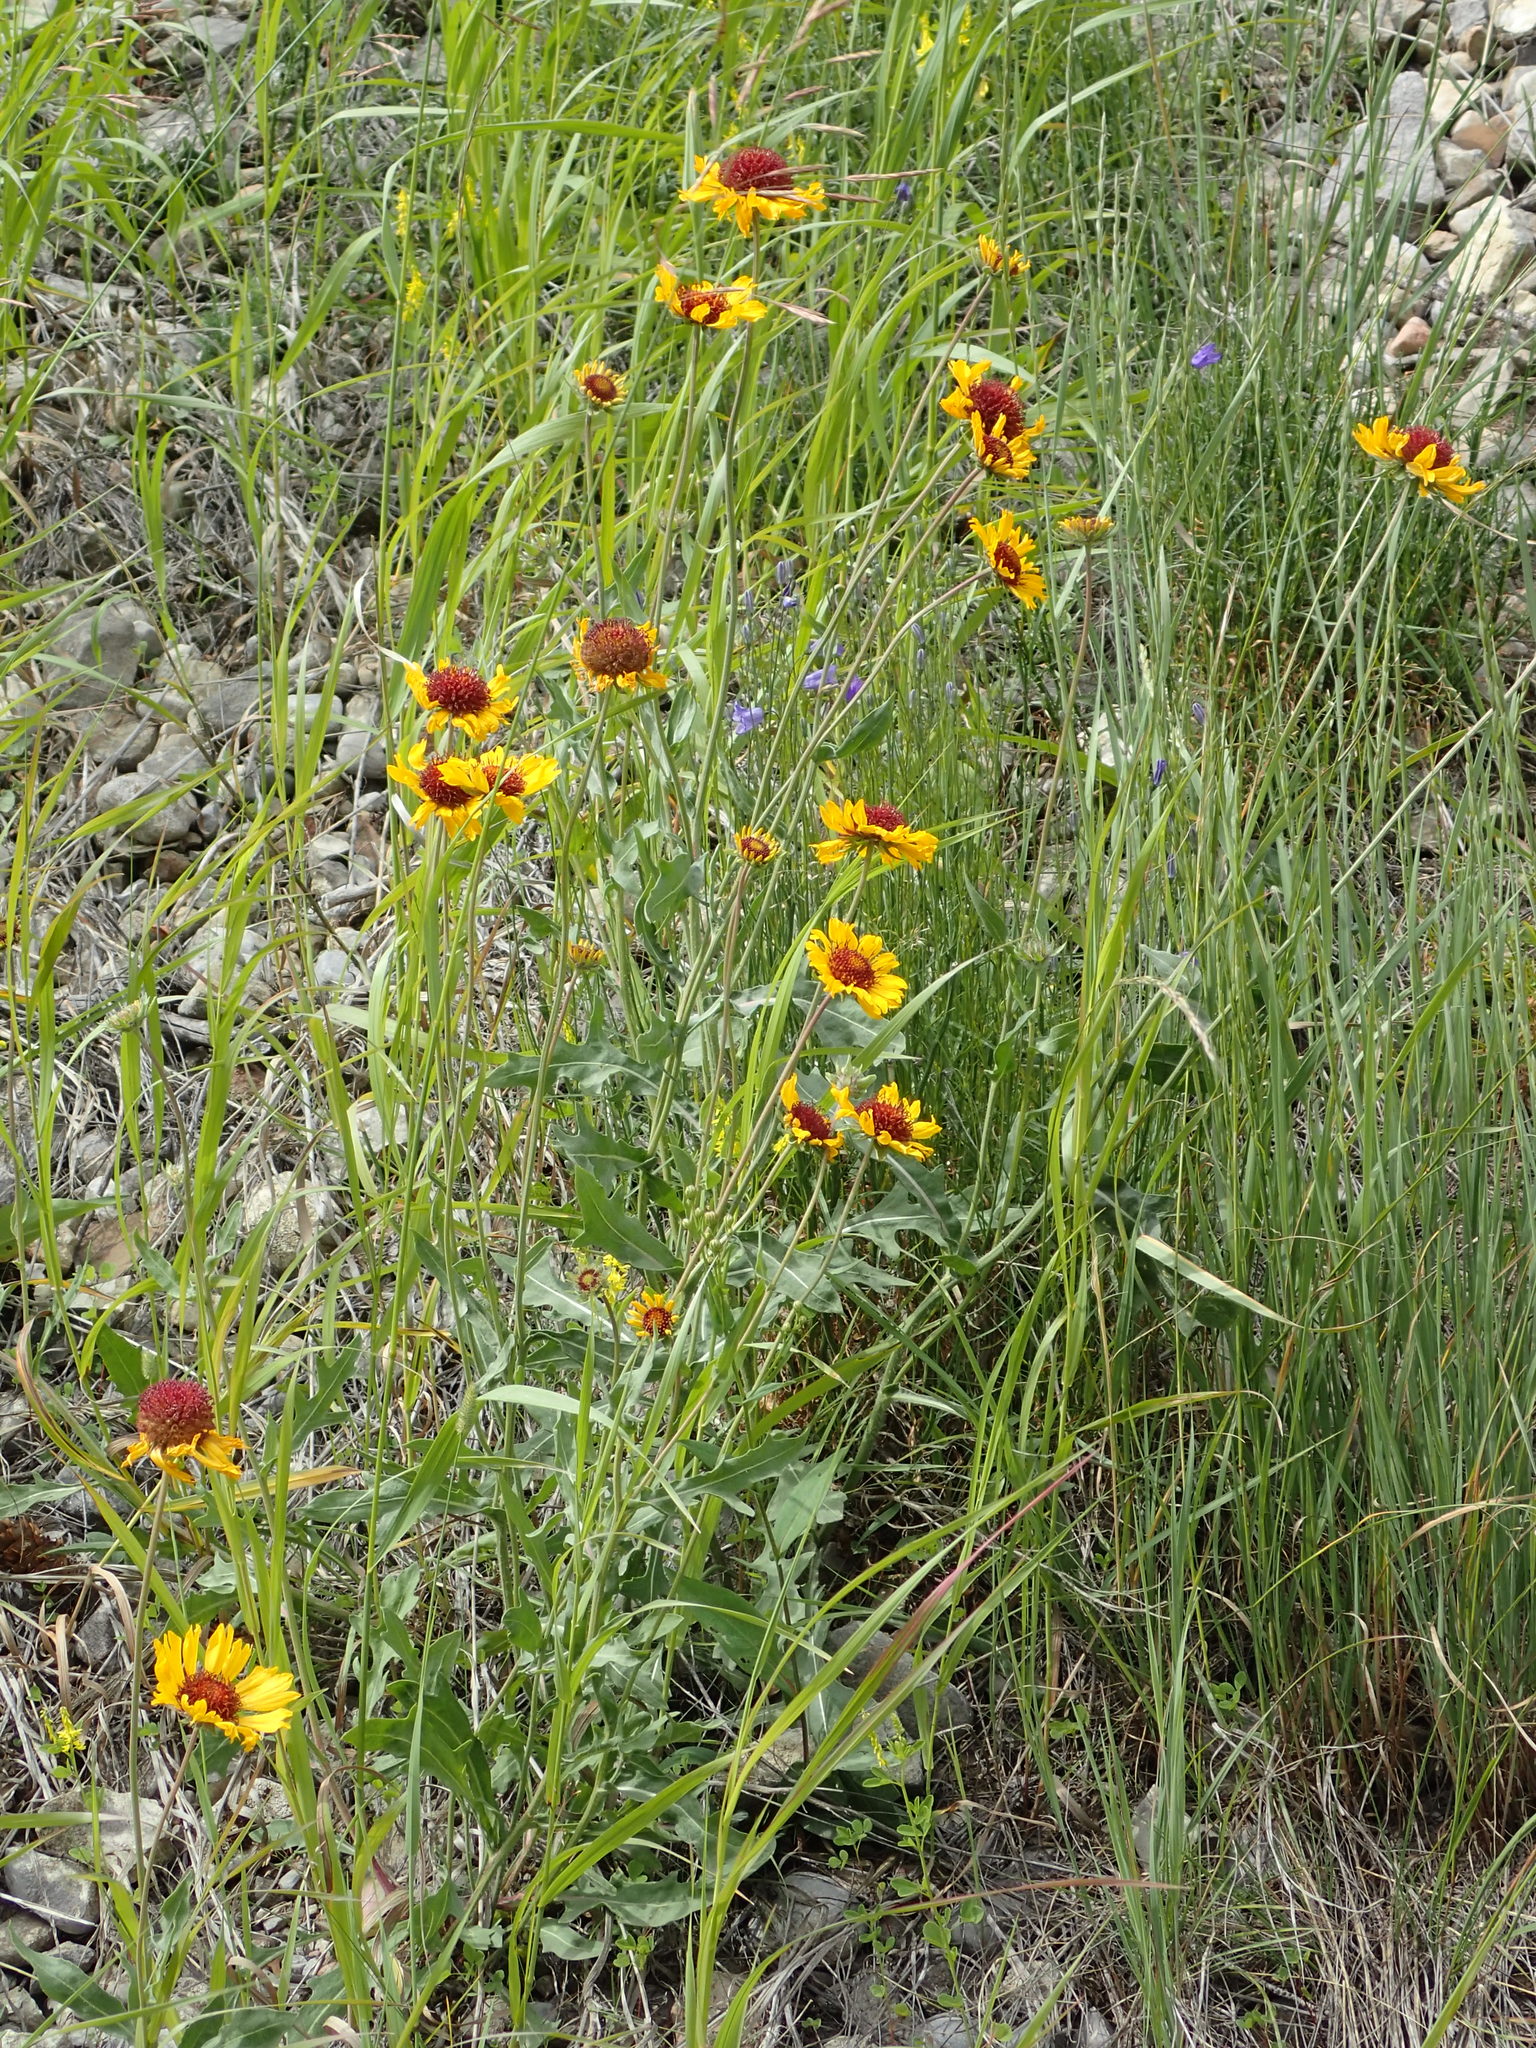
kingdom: Plantae
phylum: Tracheophyta
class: Magnoliopsida
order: Asterales
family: Asteraceae
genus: Gaillardia
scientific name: Gaillardia aristata
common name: Blanket-flower
